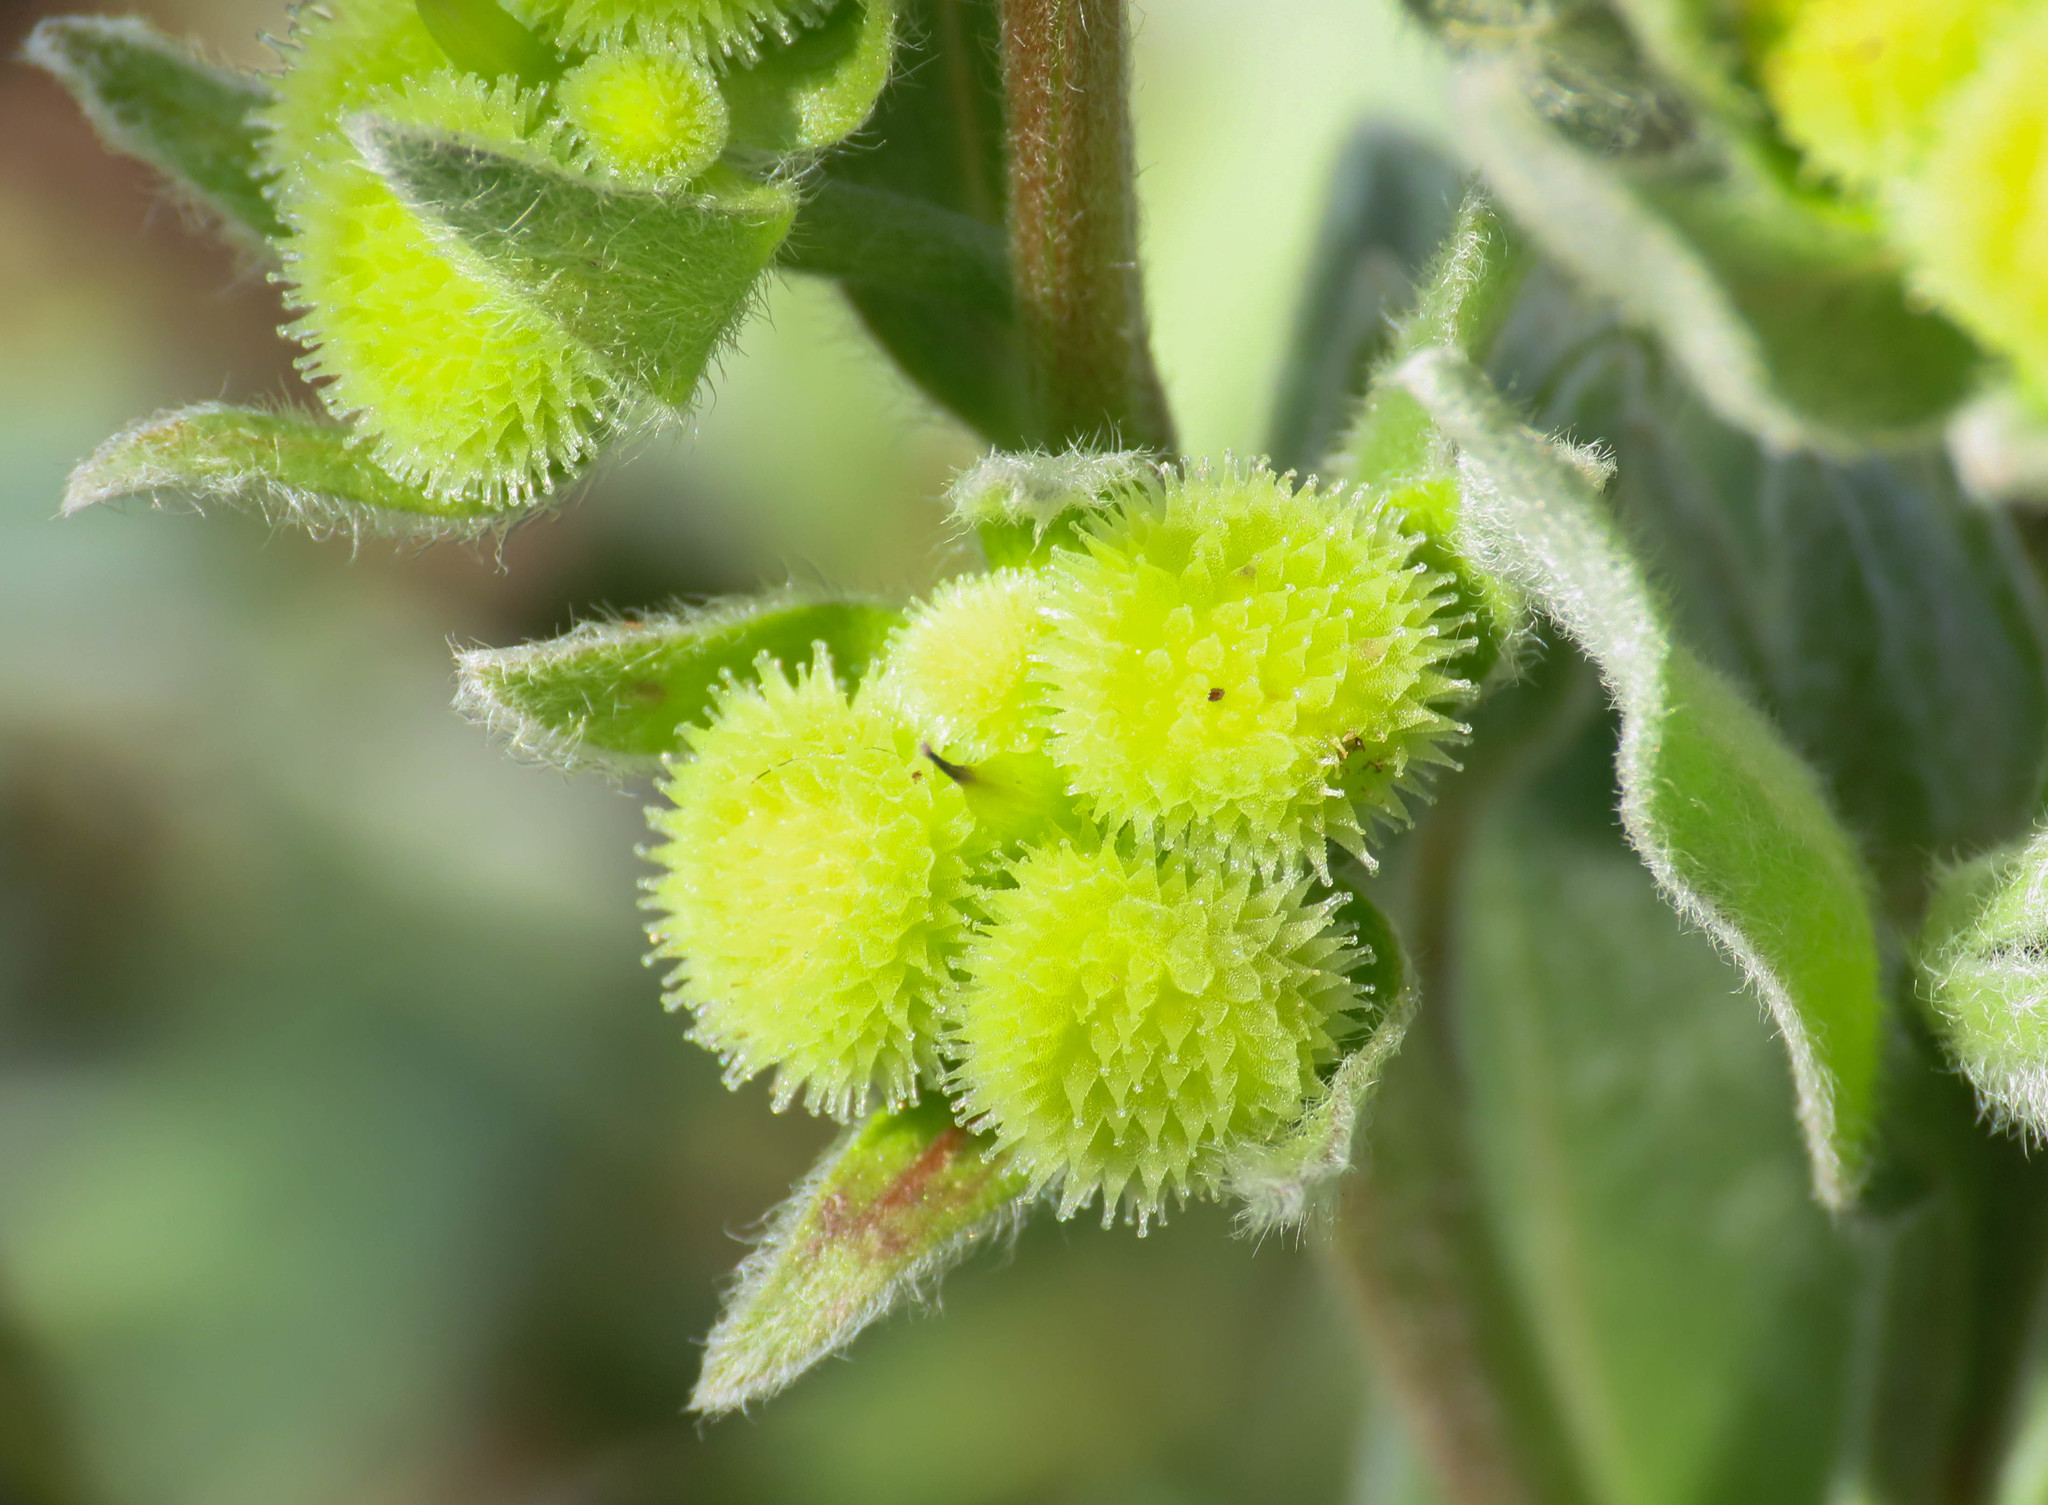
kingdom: Plantae
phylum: Tracheophyta
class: Magnoliopsida
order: Boraginales
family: Boraginaceae
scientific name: Boraginaceae
